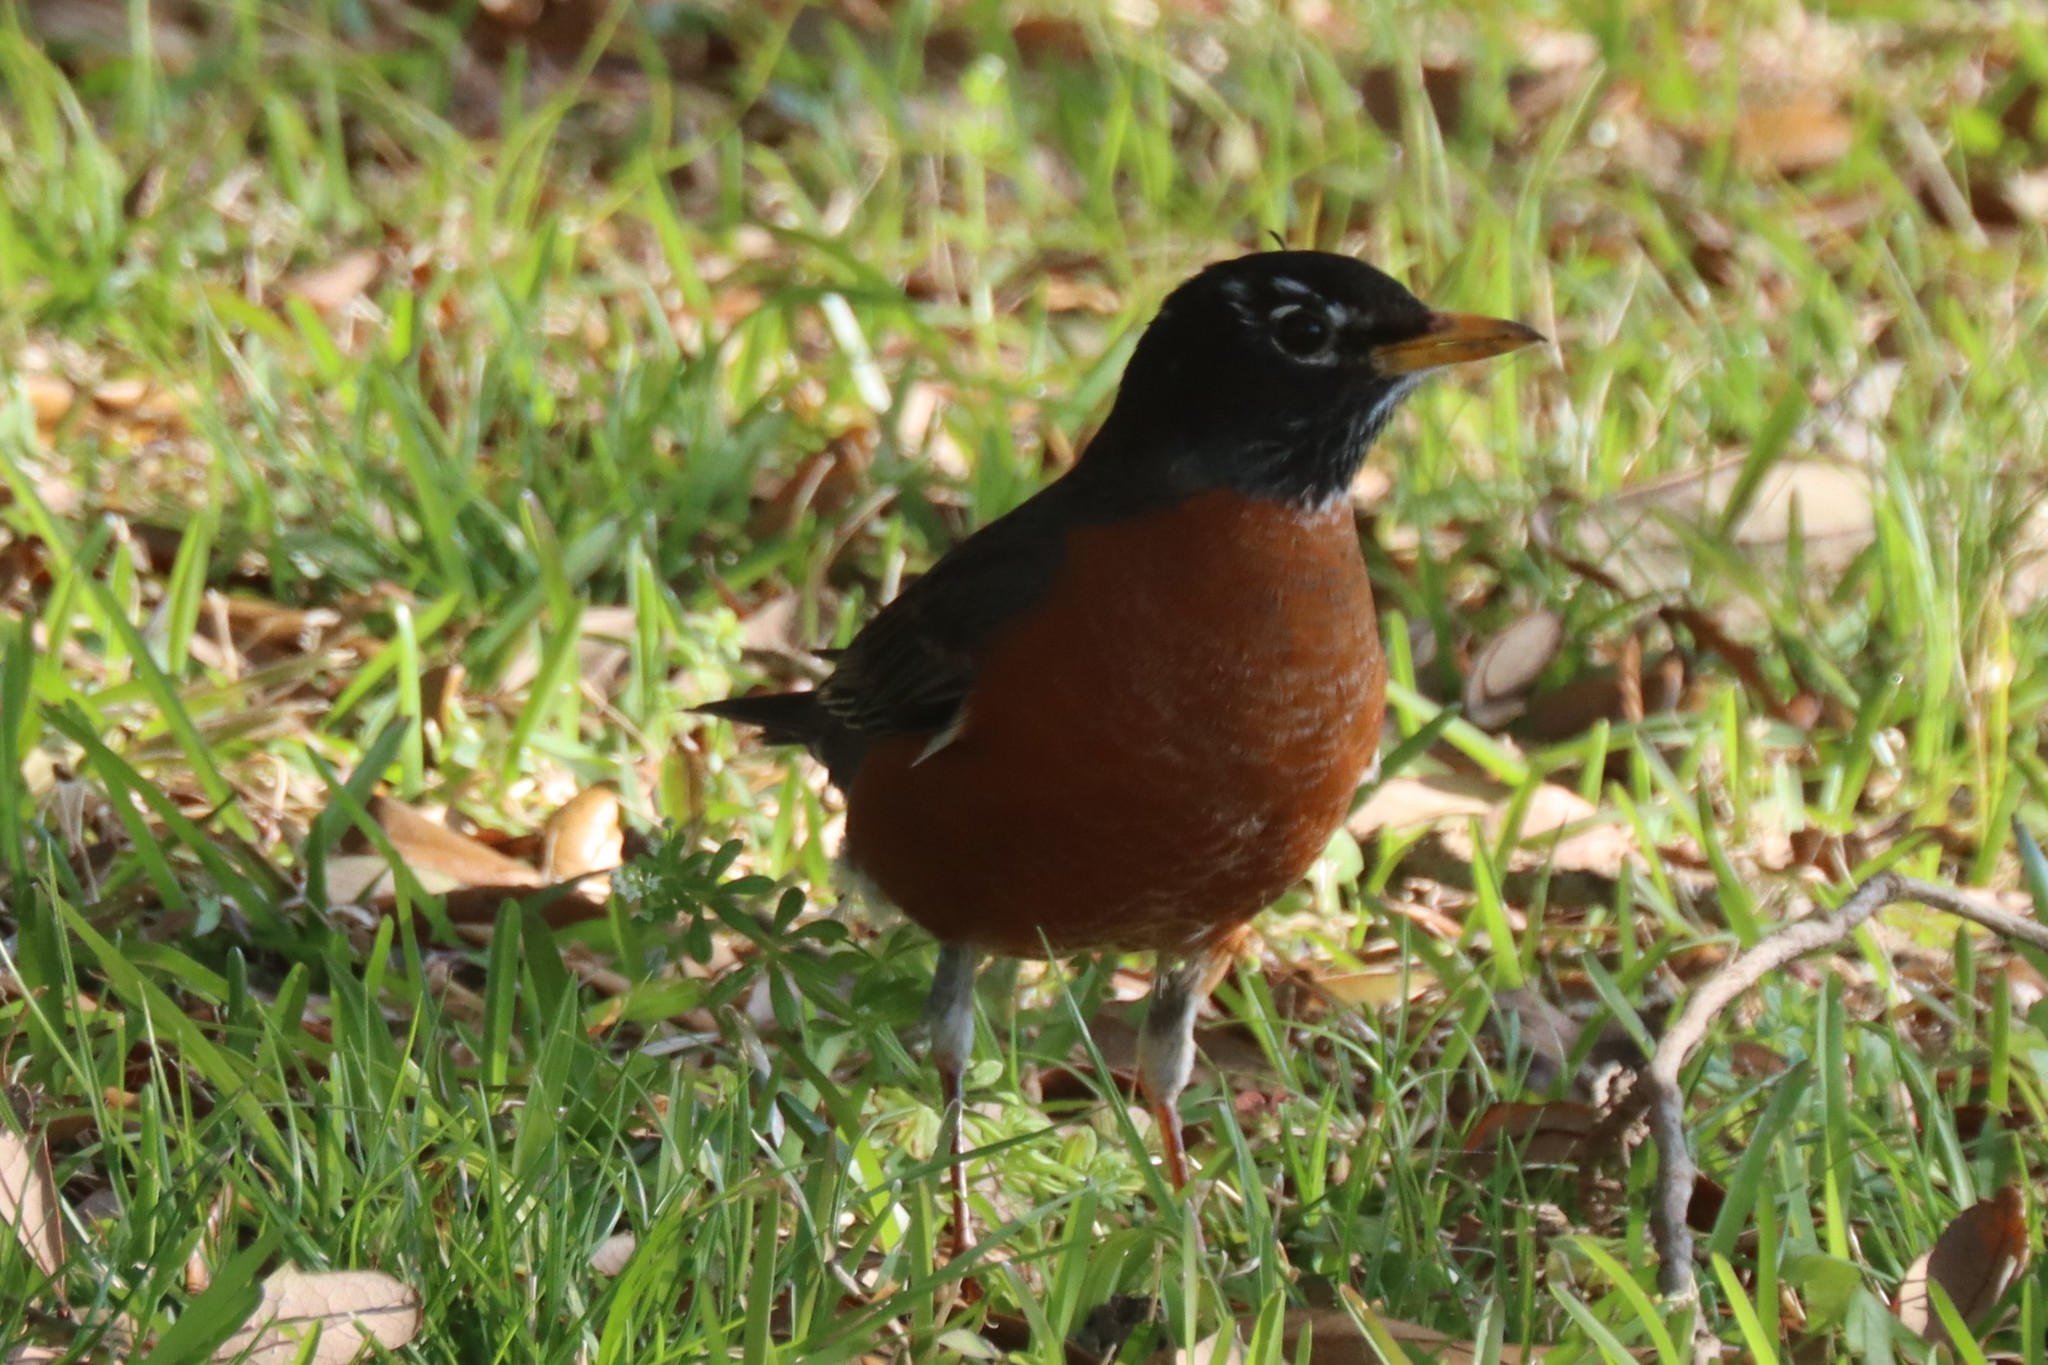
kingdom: Animalia
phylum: Chordata
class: Aves
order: Passeriformes
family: Turdidae
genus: Turdus
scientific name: Turdus migratorius
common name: American robin
